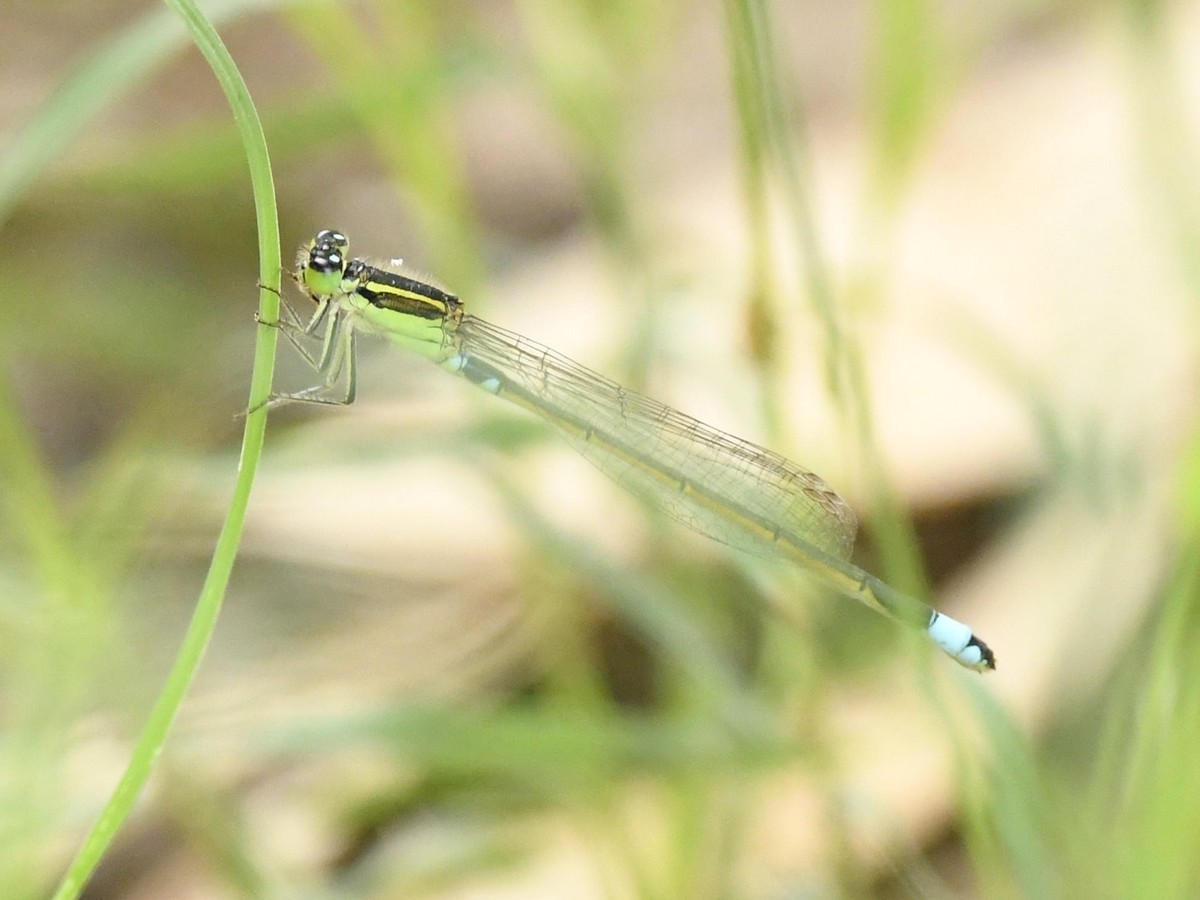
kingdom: Animalia
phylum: Arthropoda
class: Insecta
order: Odonata
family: Coenagrionidae
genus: Ischnura
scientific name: Ischnura senegalensis
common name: Tropical bluetail
